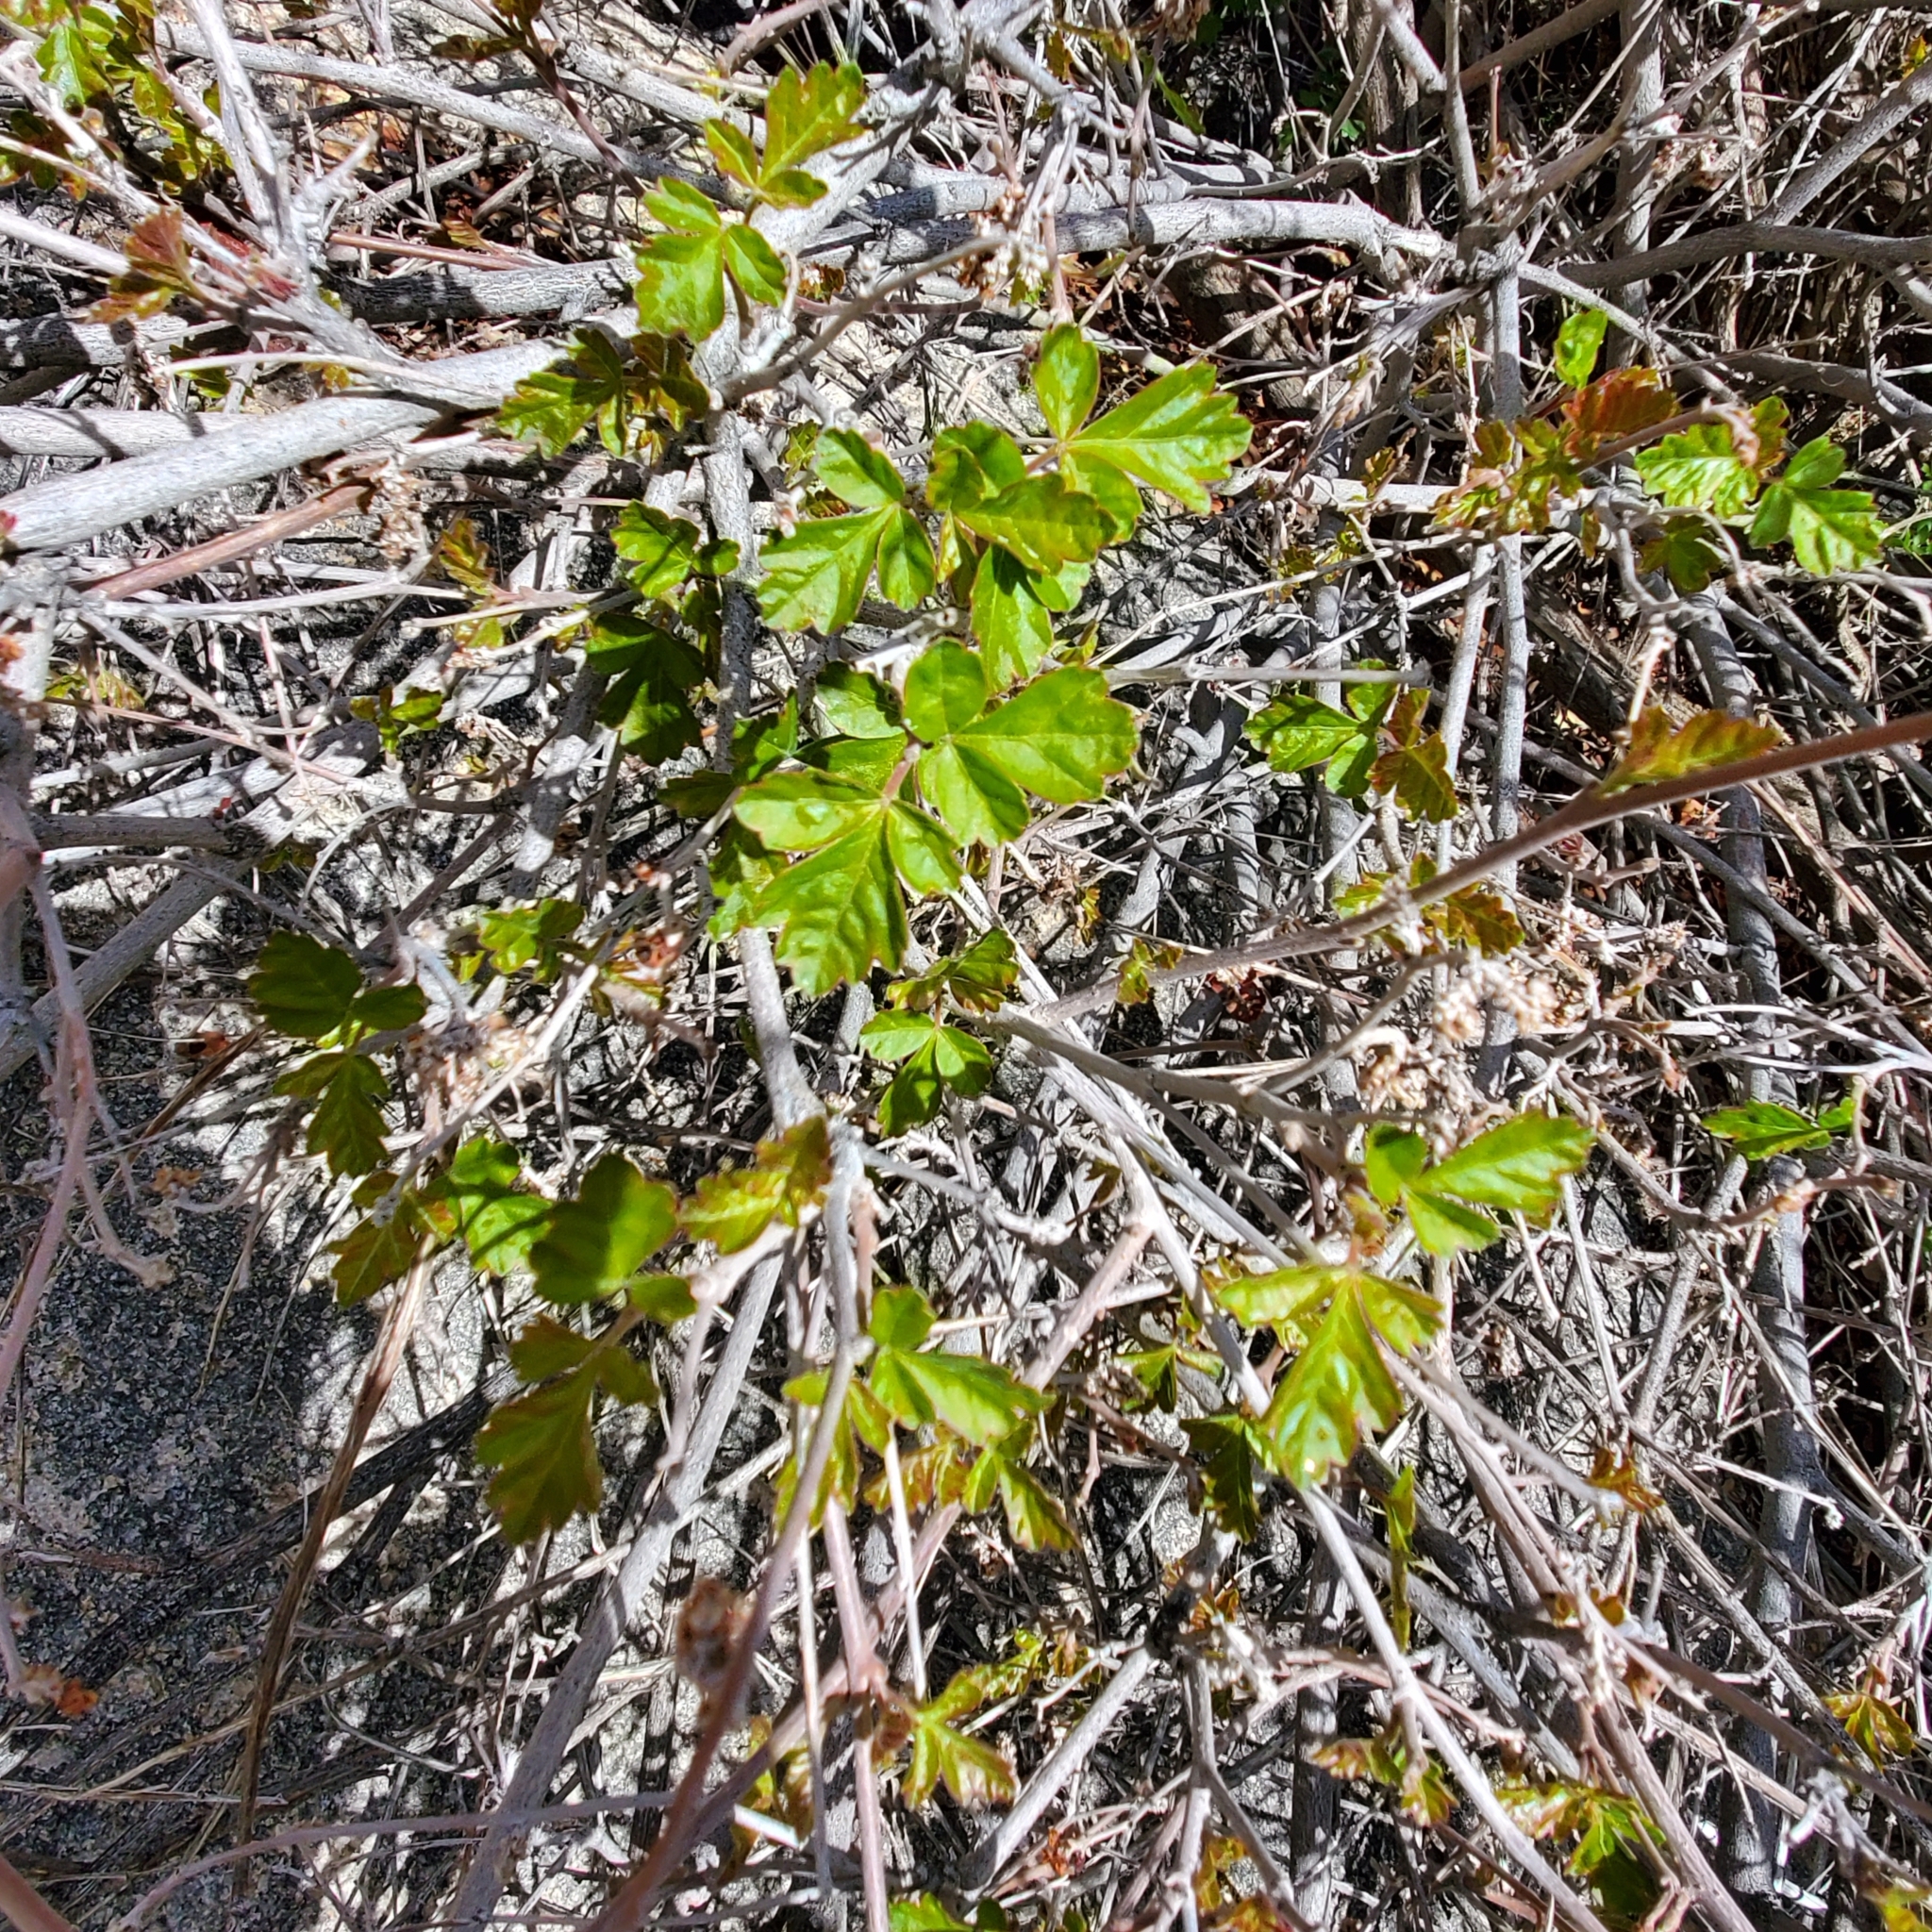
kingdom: Plantae
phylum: Tracheophyta
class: Magnoliopsida
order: Sapindales
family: Anacardiaceae
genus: Rhus
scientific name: Rhus aromatica
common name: Aromatic sumac
